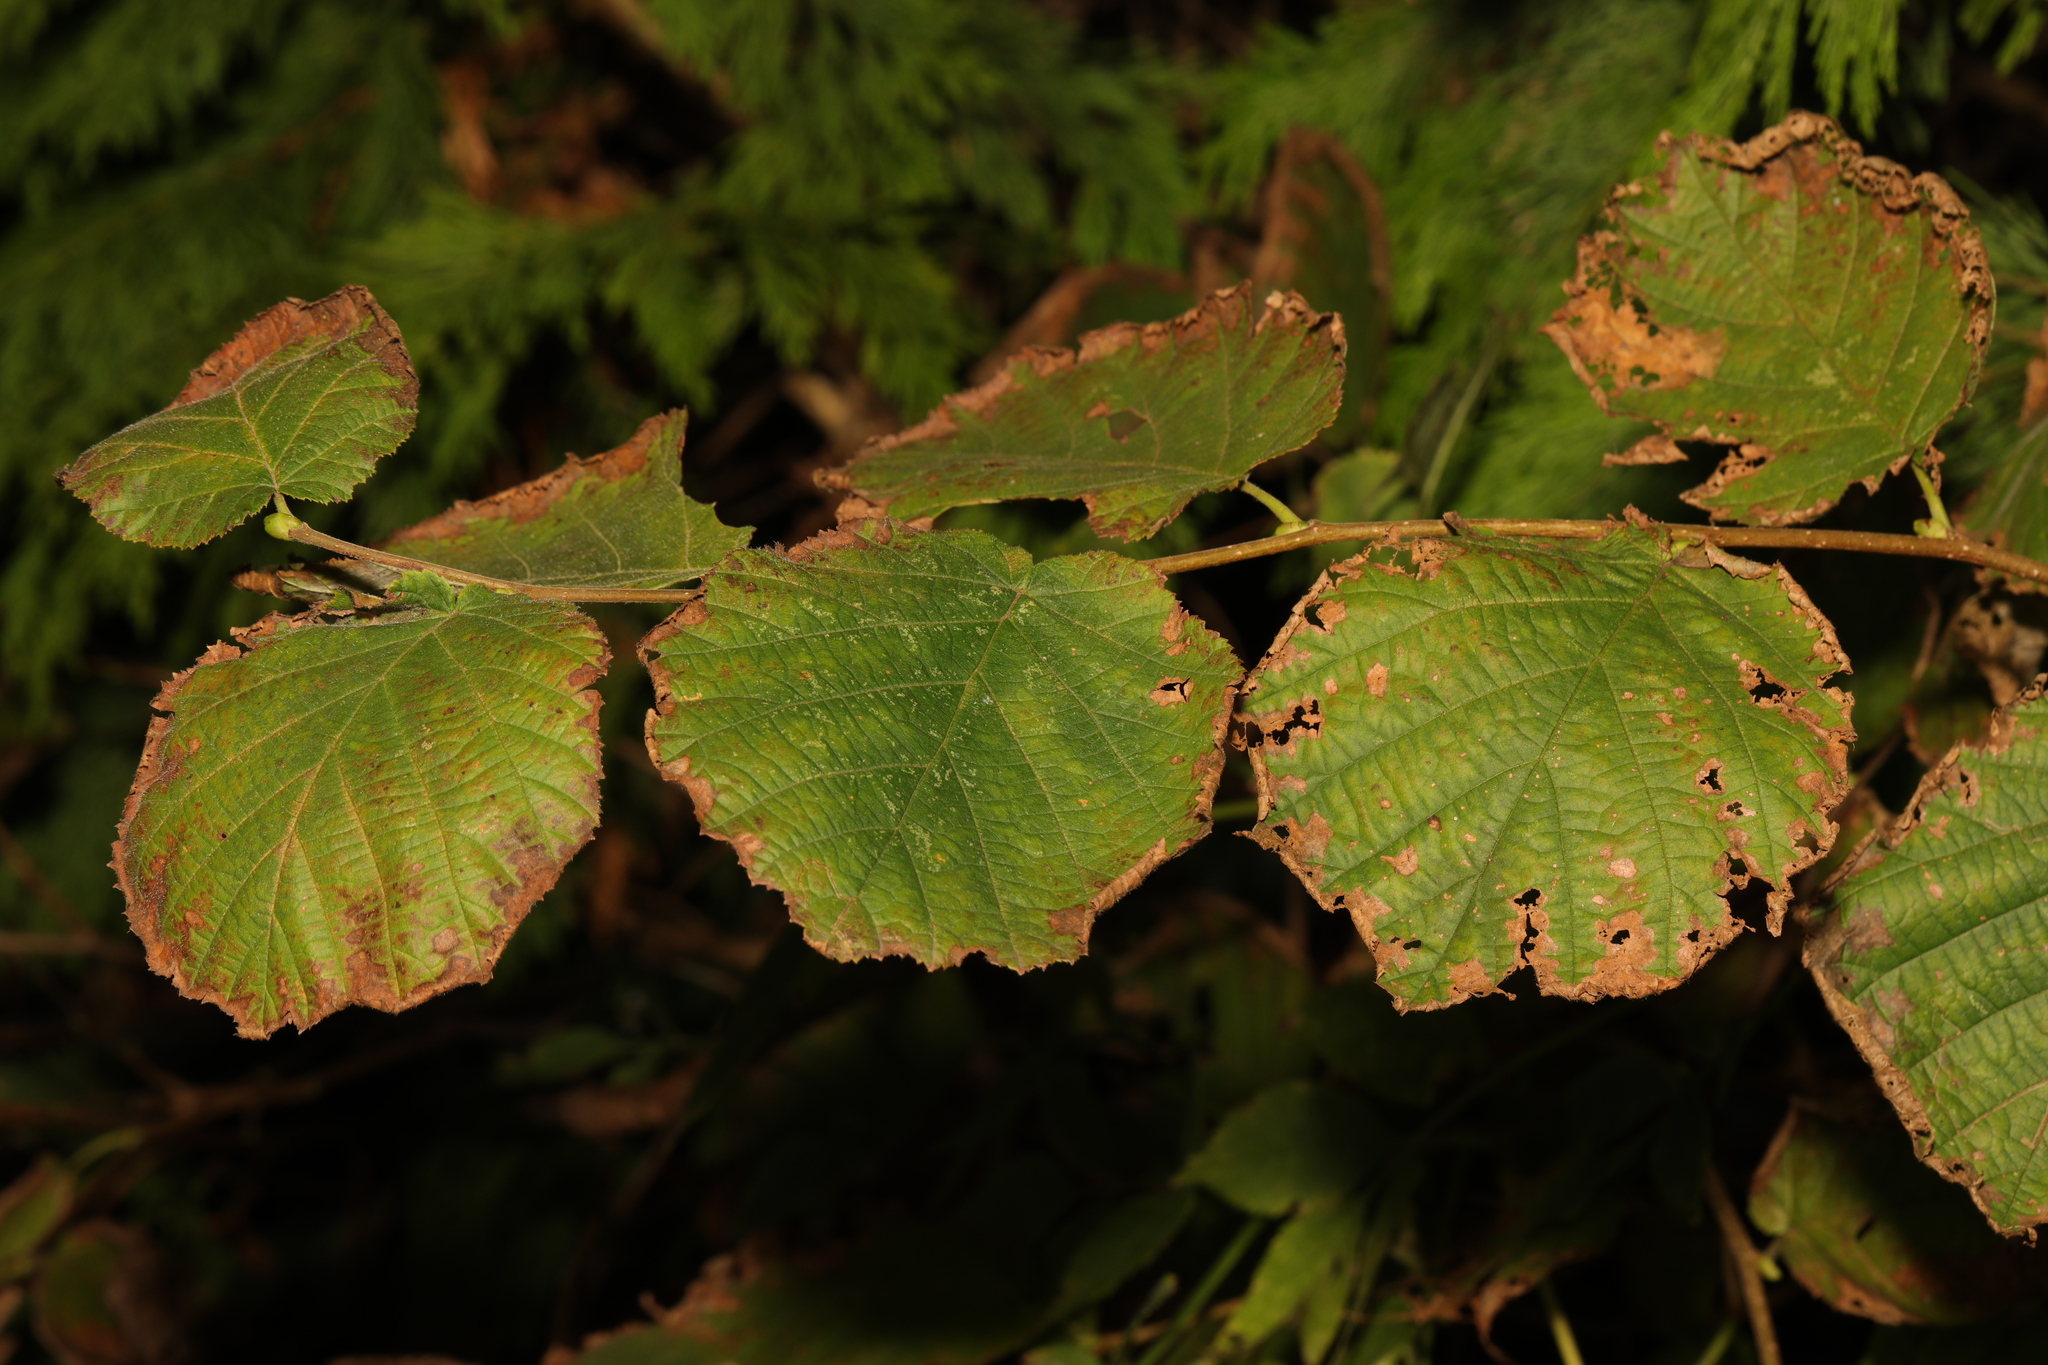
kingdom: Plantae
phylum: Tracheophyta
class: Magnoliopsida
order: Fagales
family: Betulaceae
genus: Corylus
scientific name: Corylus avellana
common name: European hazel
